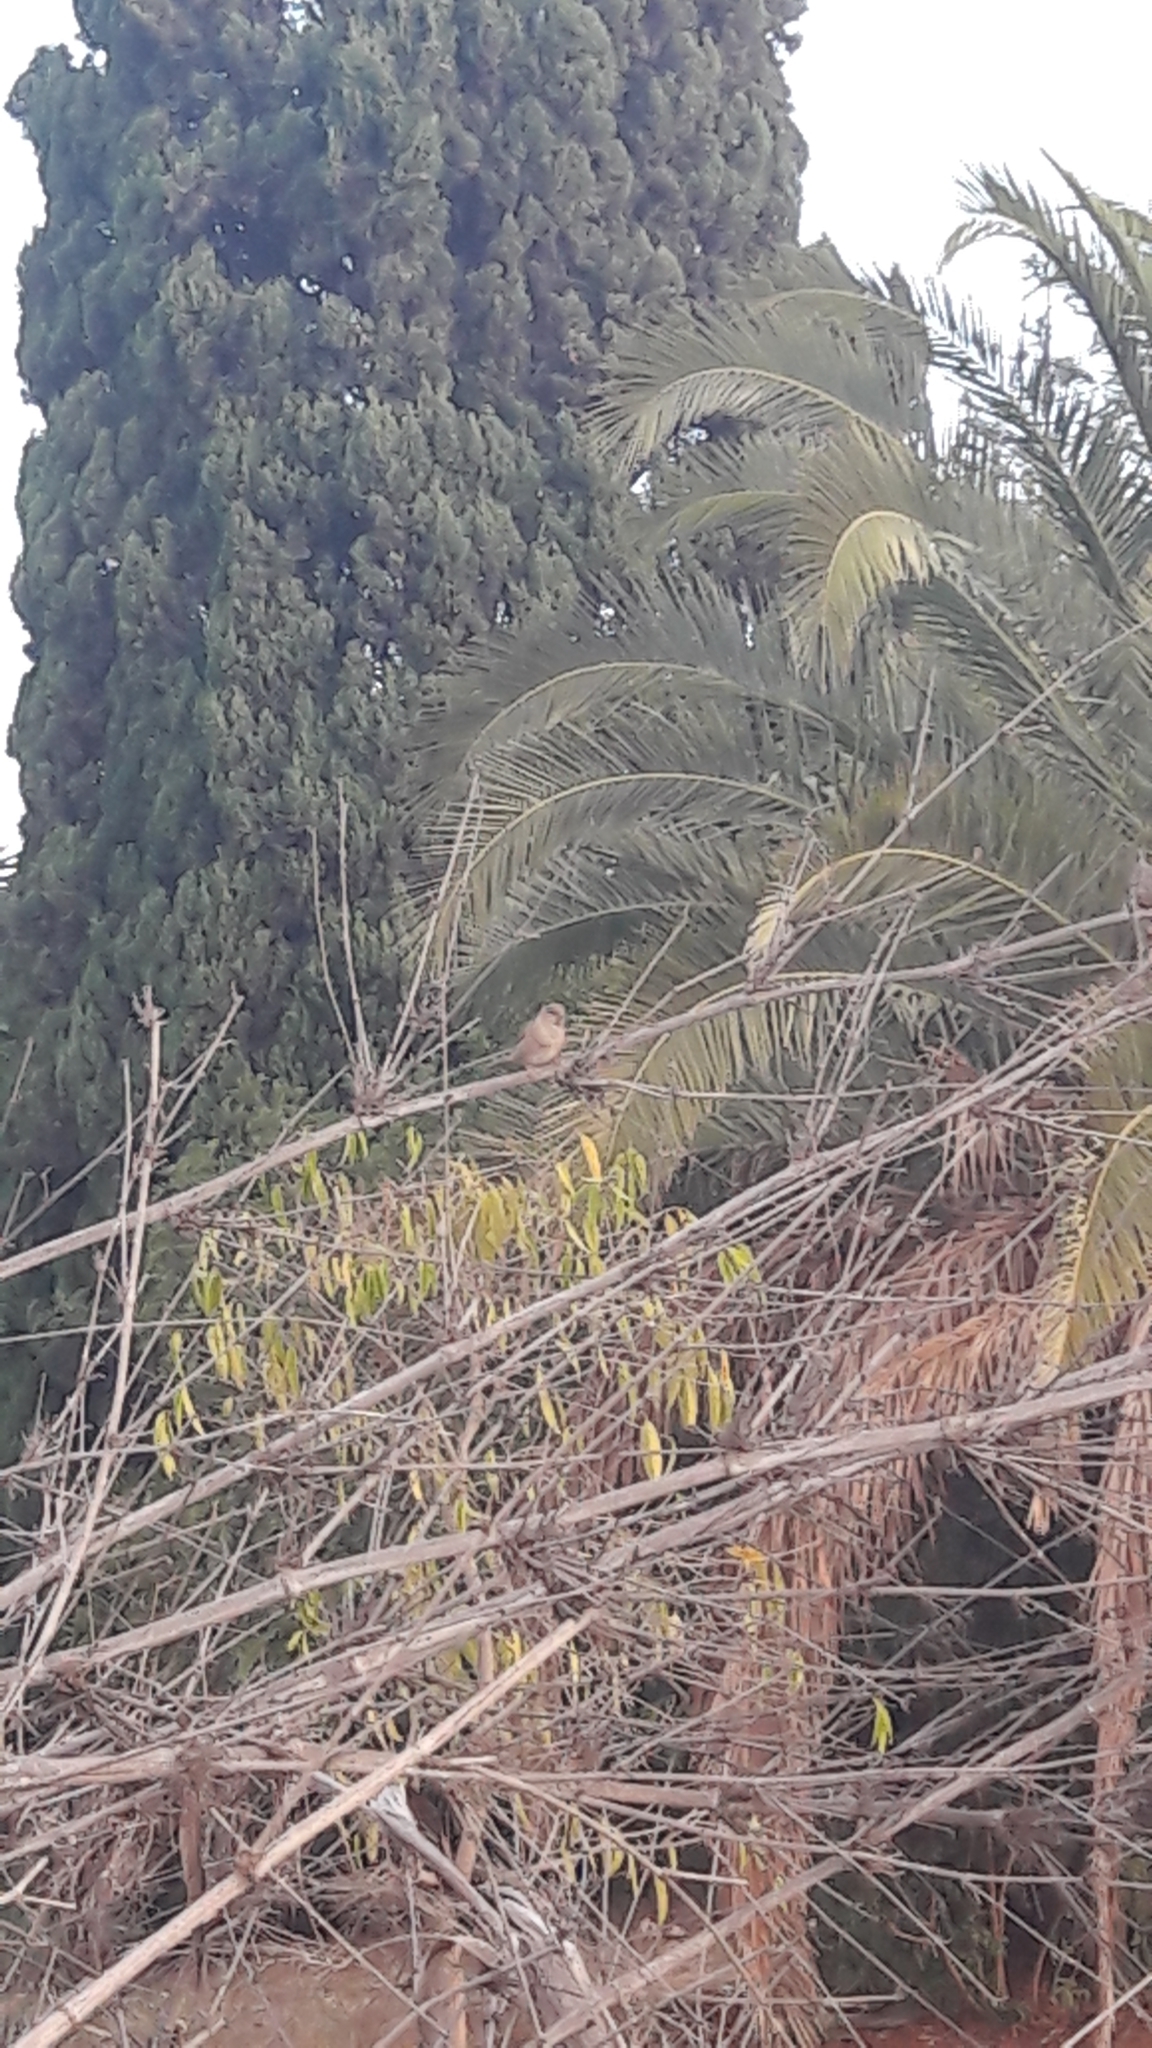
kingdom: Animalia
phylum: Chordata
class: Aves
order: Passeriformes
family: Passeridae
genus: Passer
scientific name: Passer domesticus
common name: House sparrow
